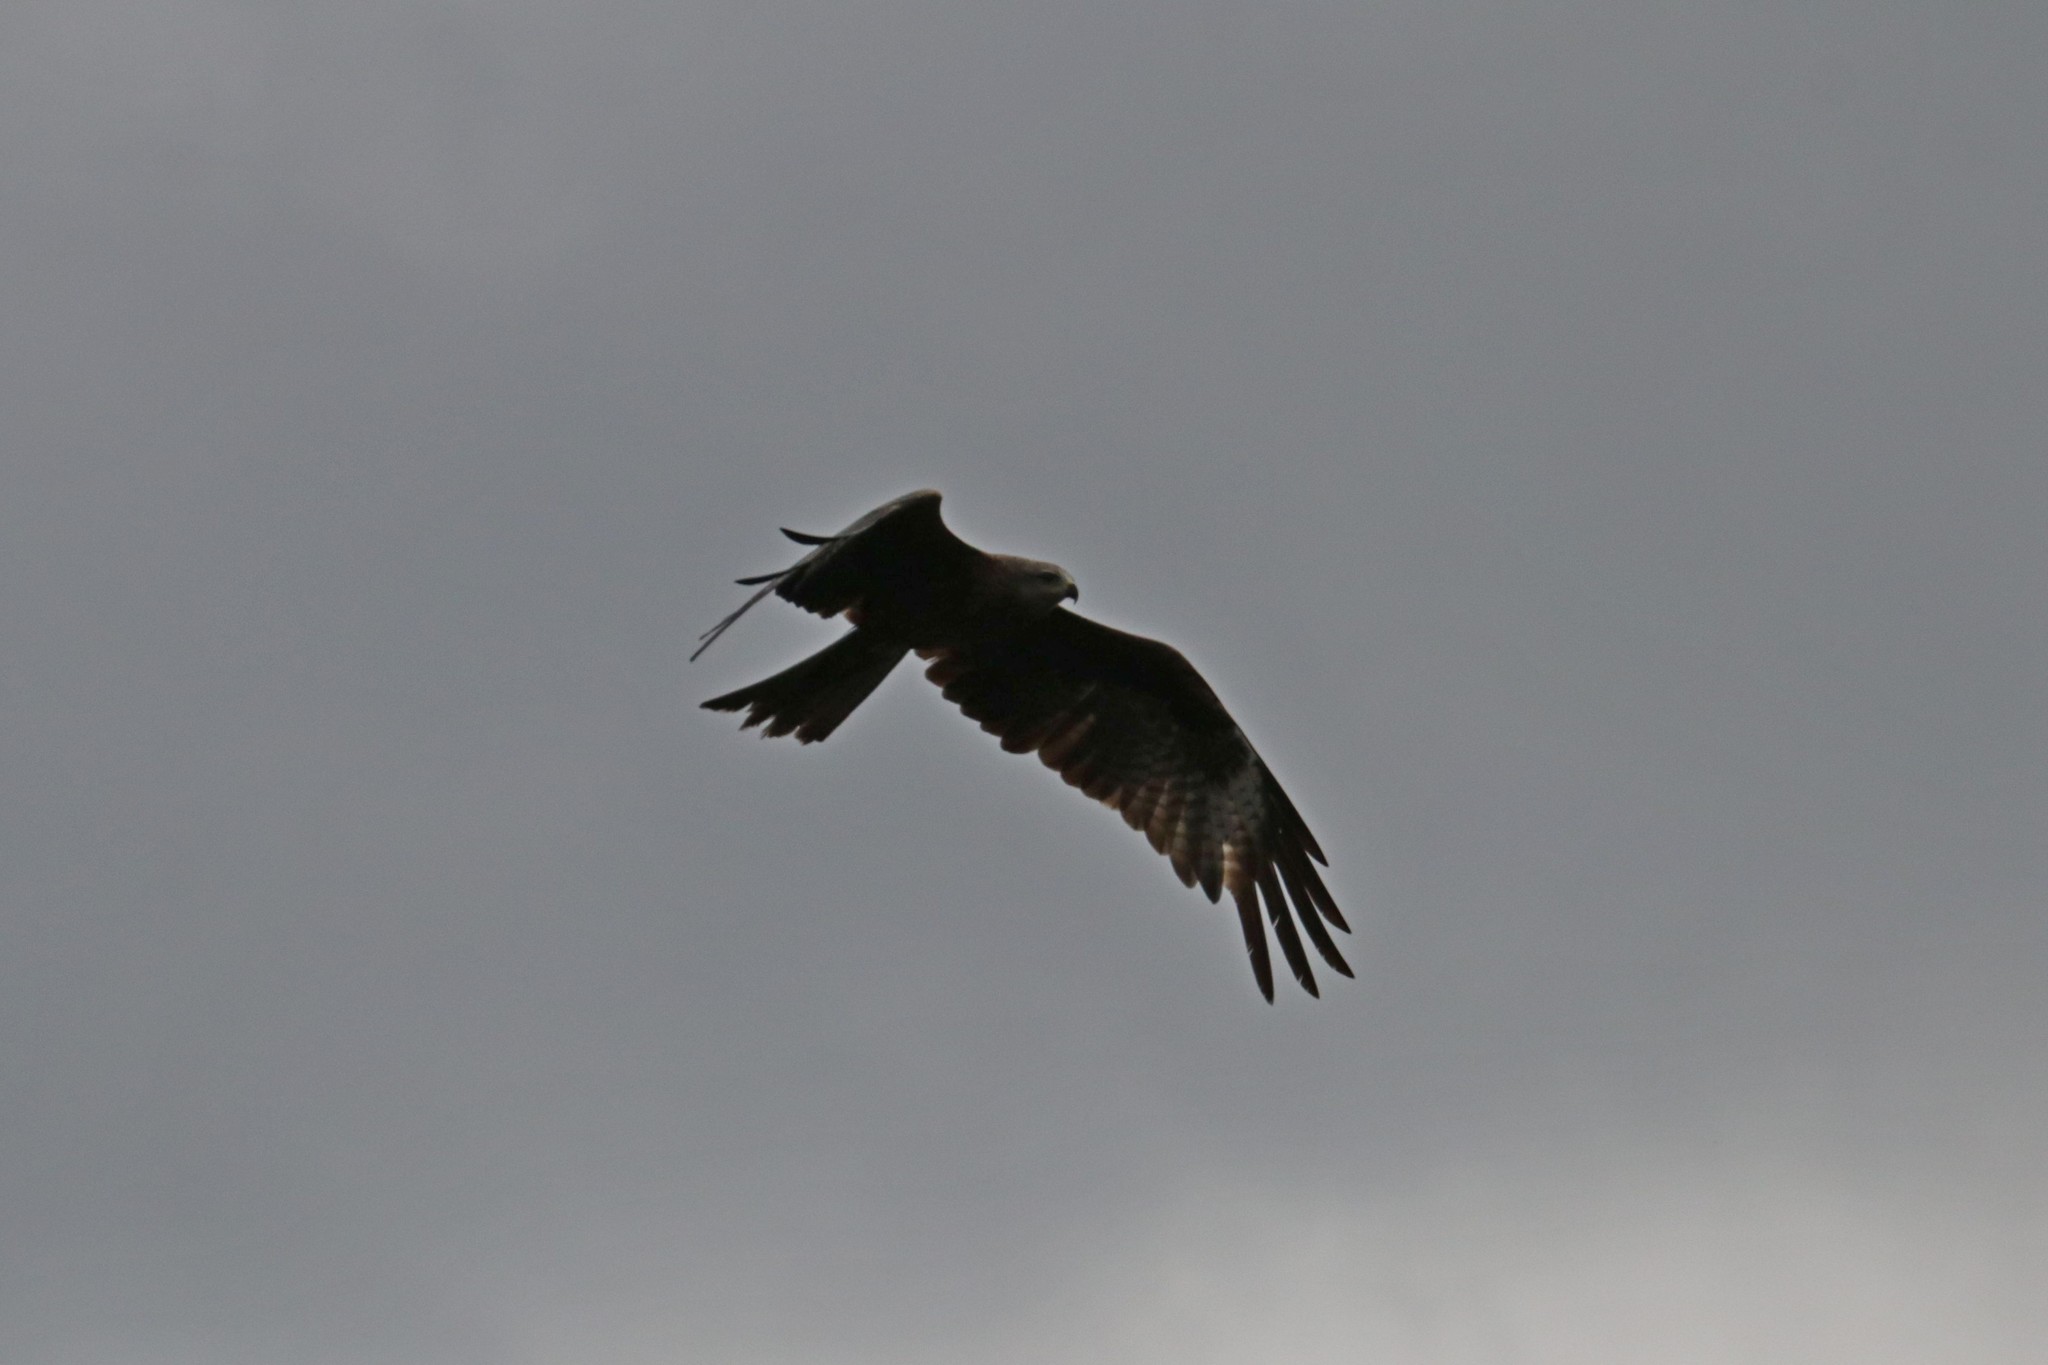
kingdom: Animalia
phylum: Chordata
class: Aves
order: Accipitriformes
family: Accipitridae
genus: Milvus
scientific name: Milvus migrans
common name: Black kite
